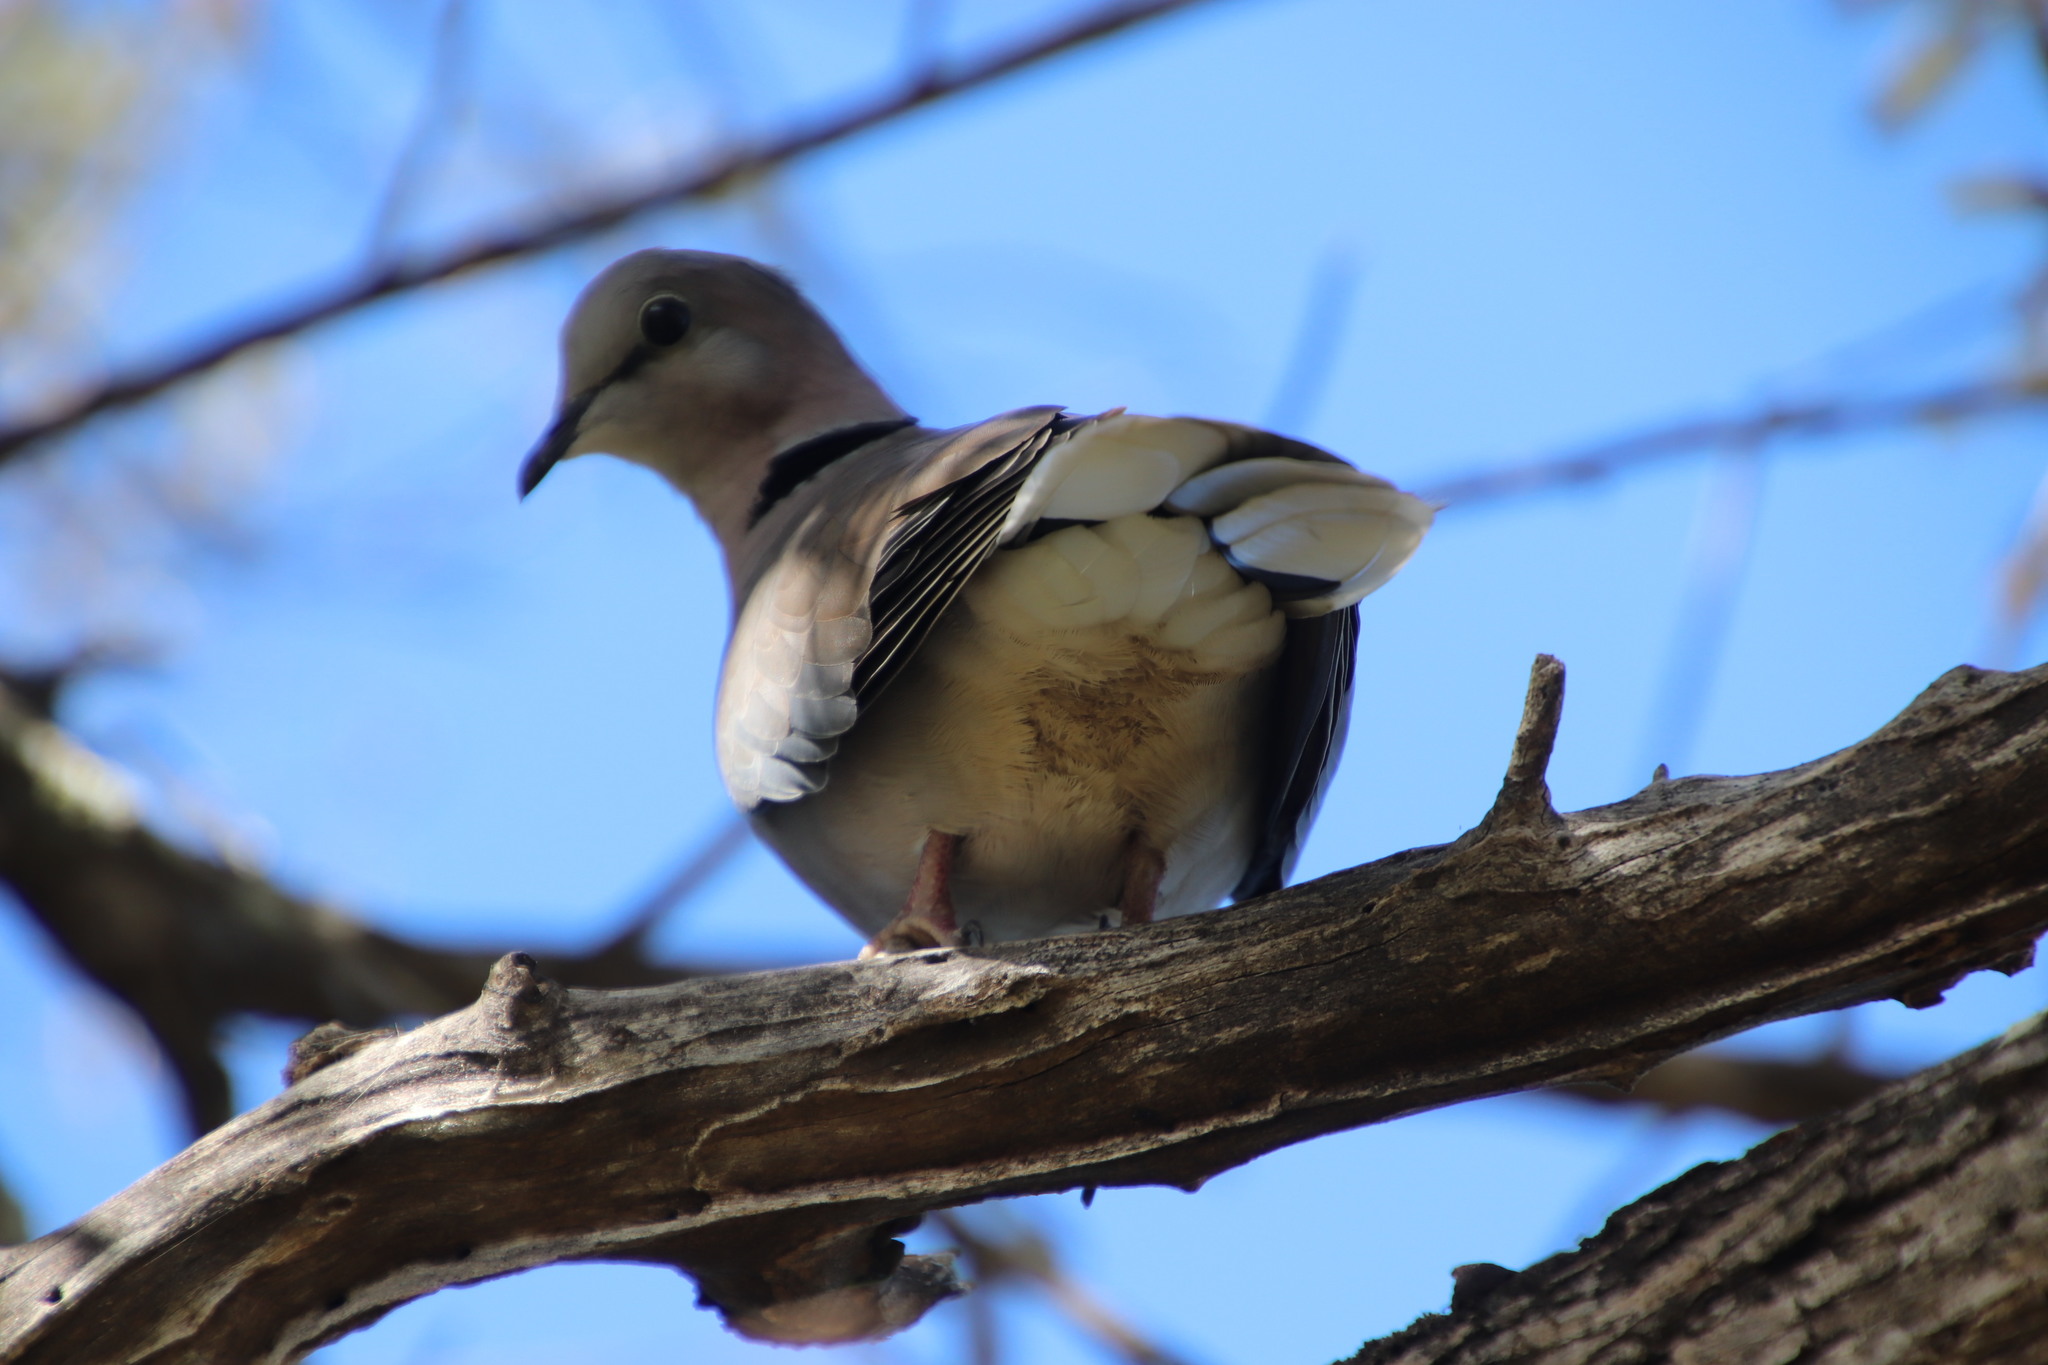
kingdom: Animalia
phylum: Chordata
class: Aves
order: Columbiformes
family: Columbidae
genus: Streptopelia
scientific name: Streptopelia capicola
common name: Ring-necked dove
